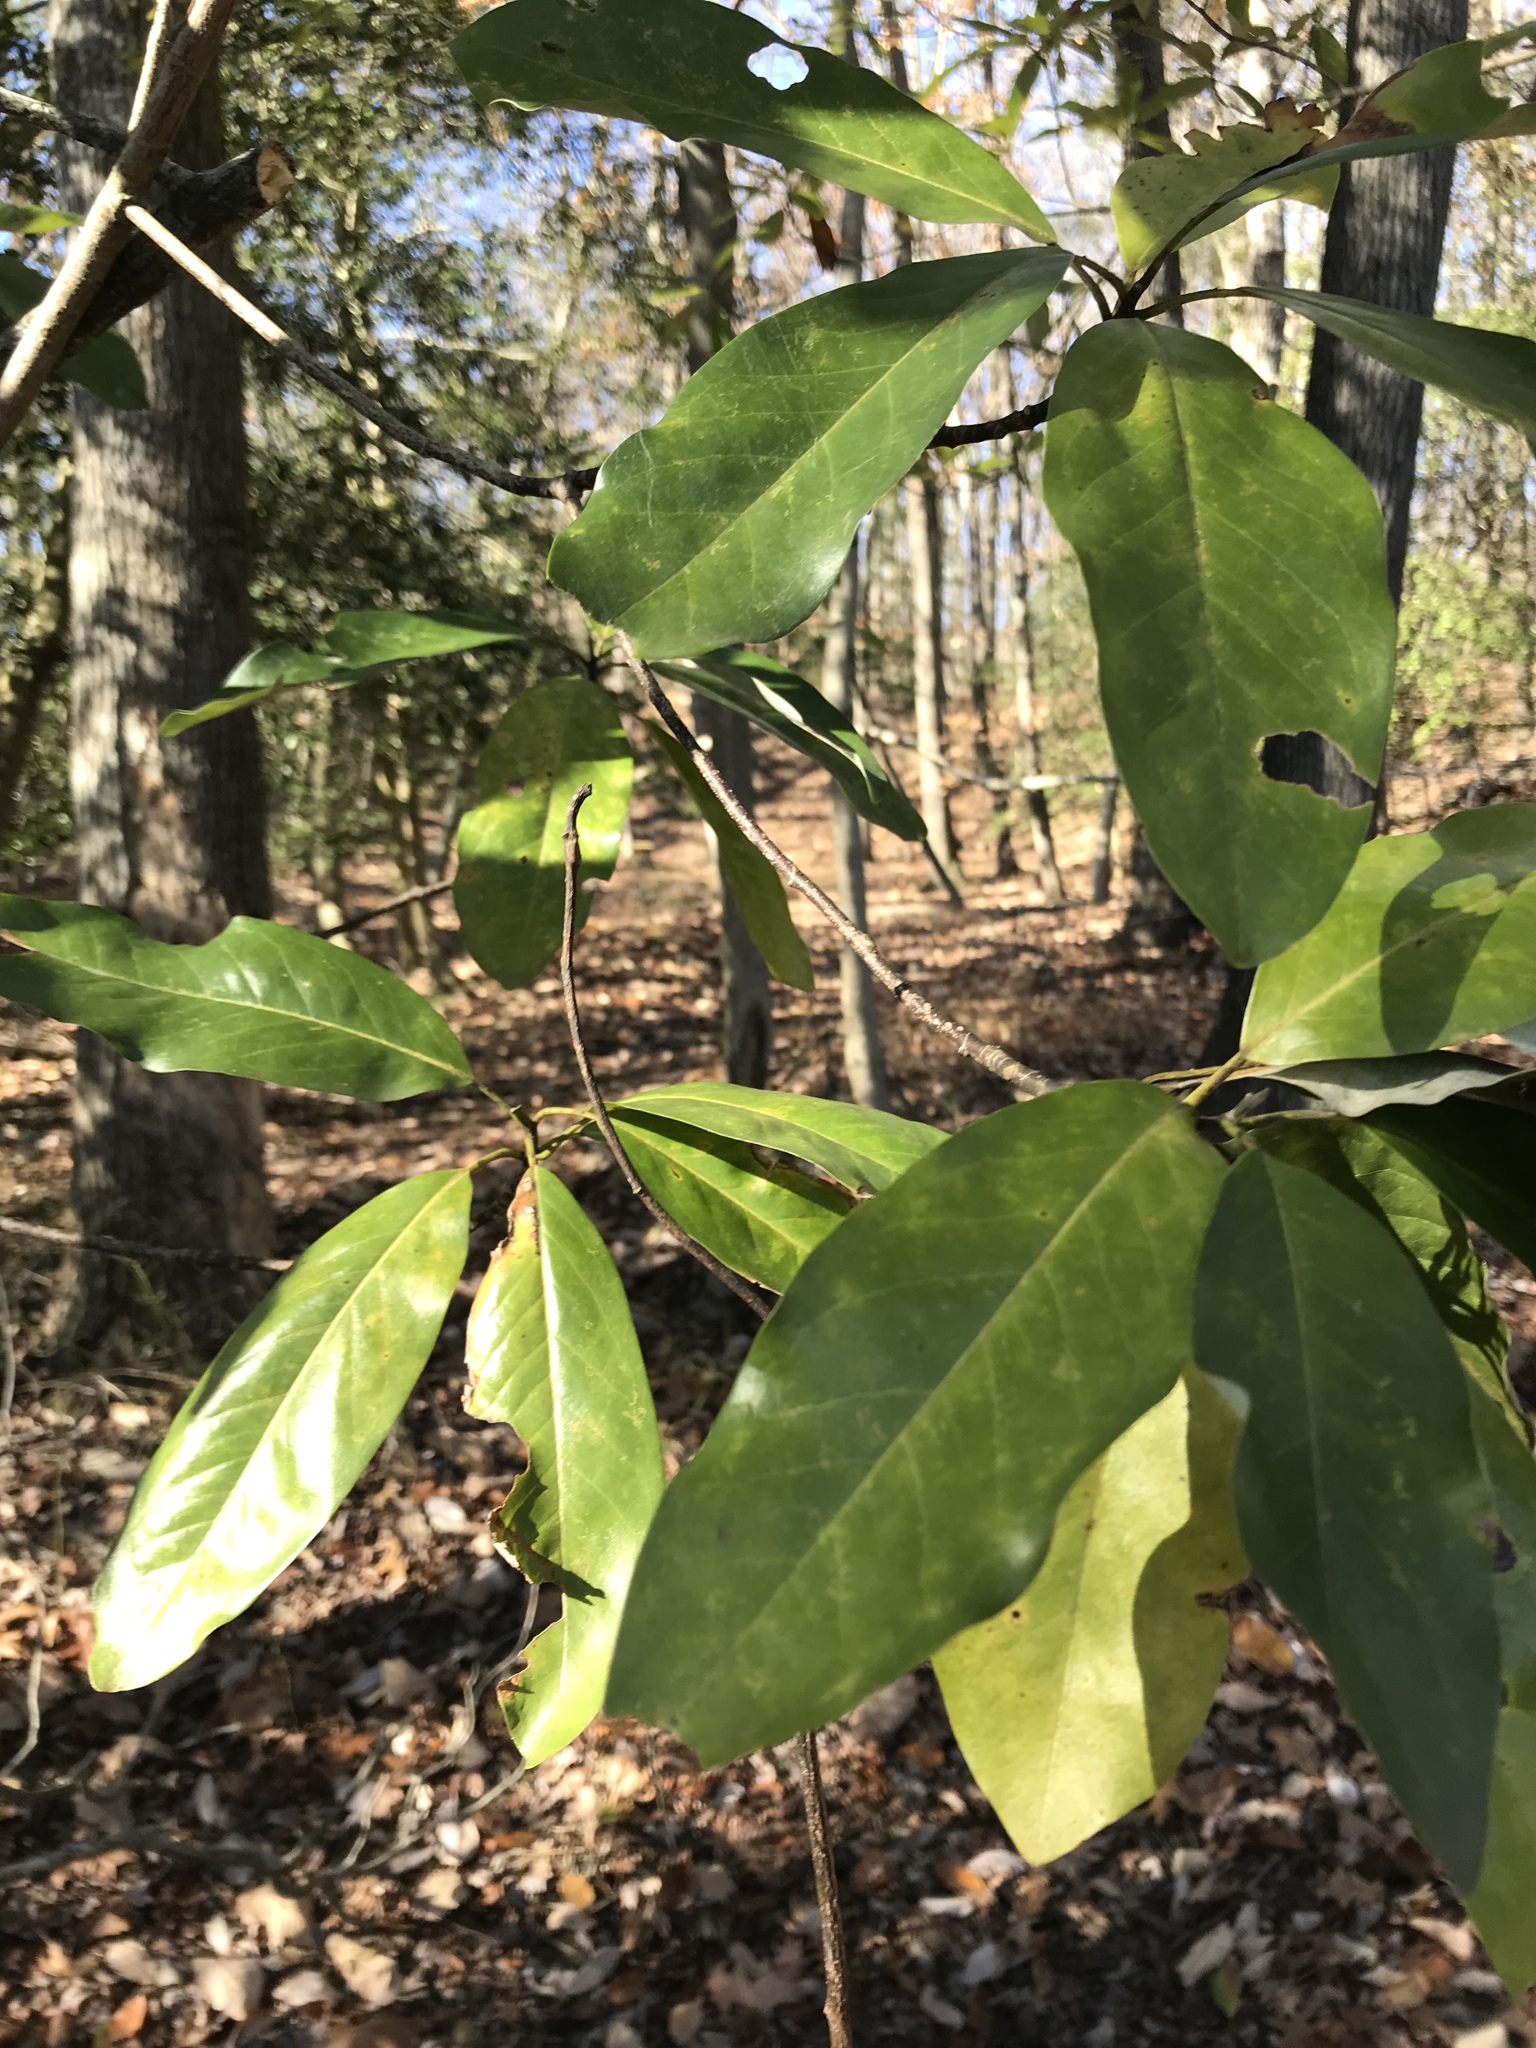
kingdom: Plantae
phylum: Tracheophyta
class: Magnoliopsida
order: Magnoliales
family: Magnoliaceae
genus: Magnolia
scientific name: Magnolia virginiana
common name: Swamp bay
